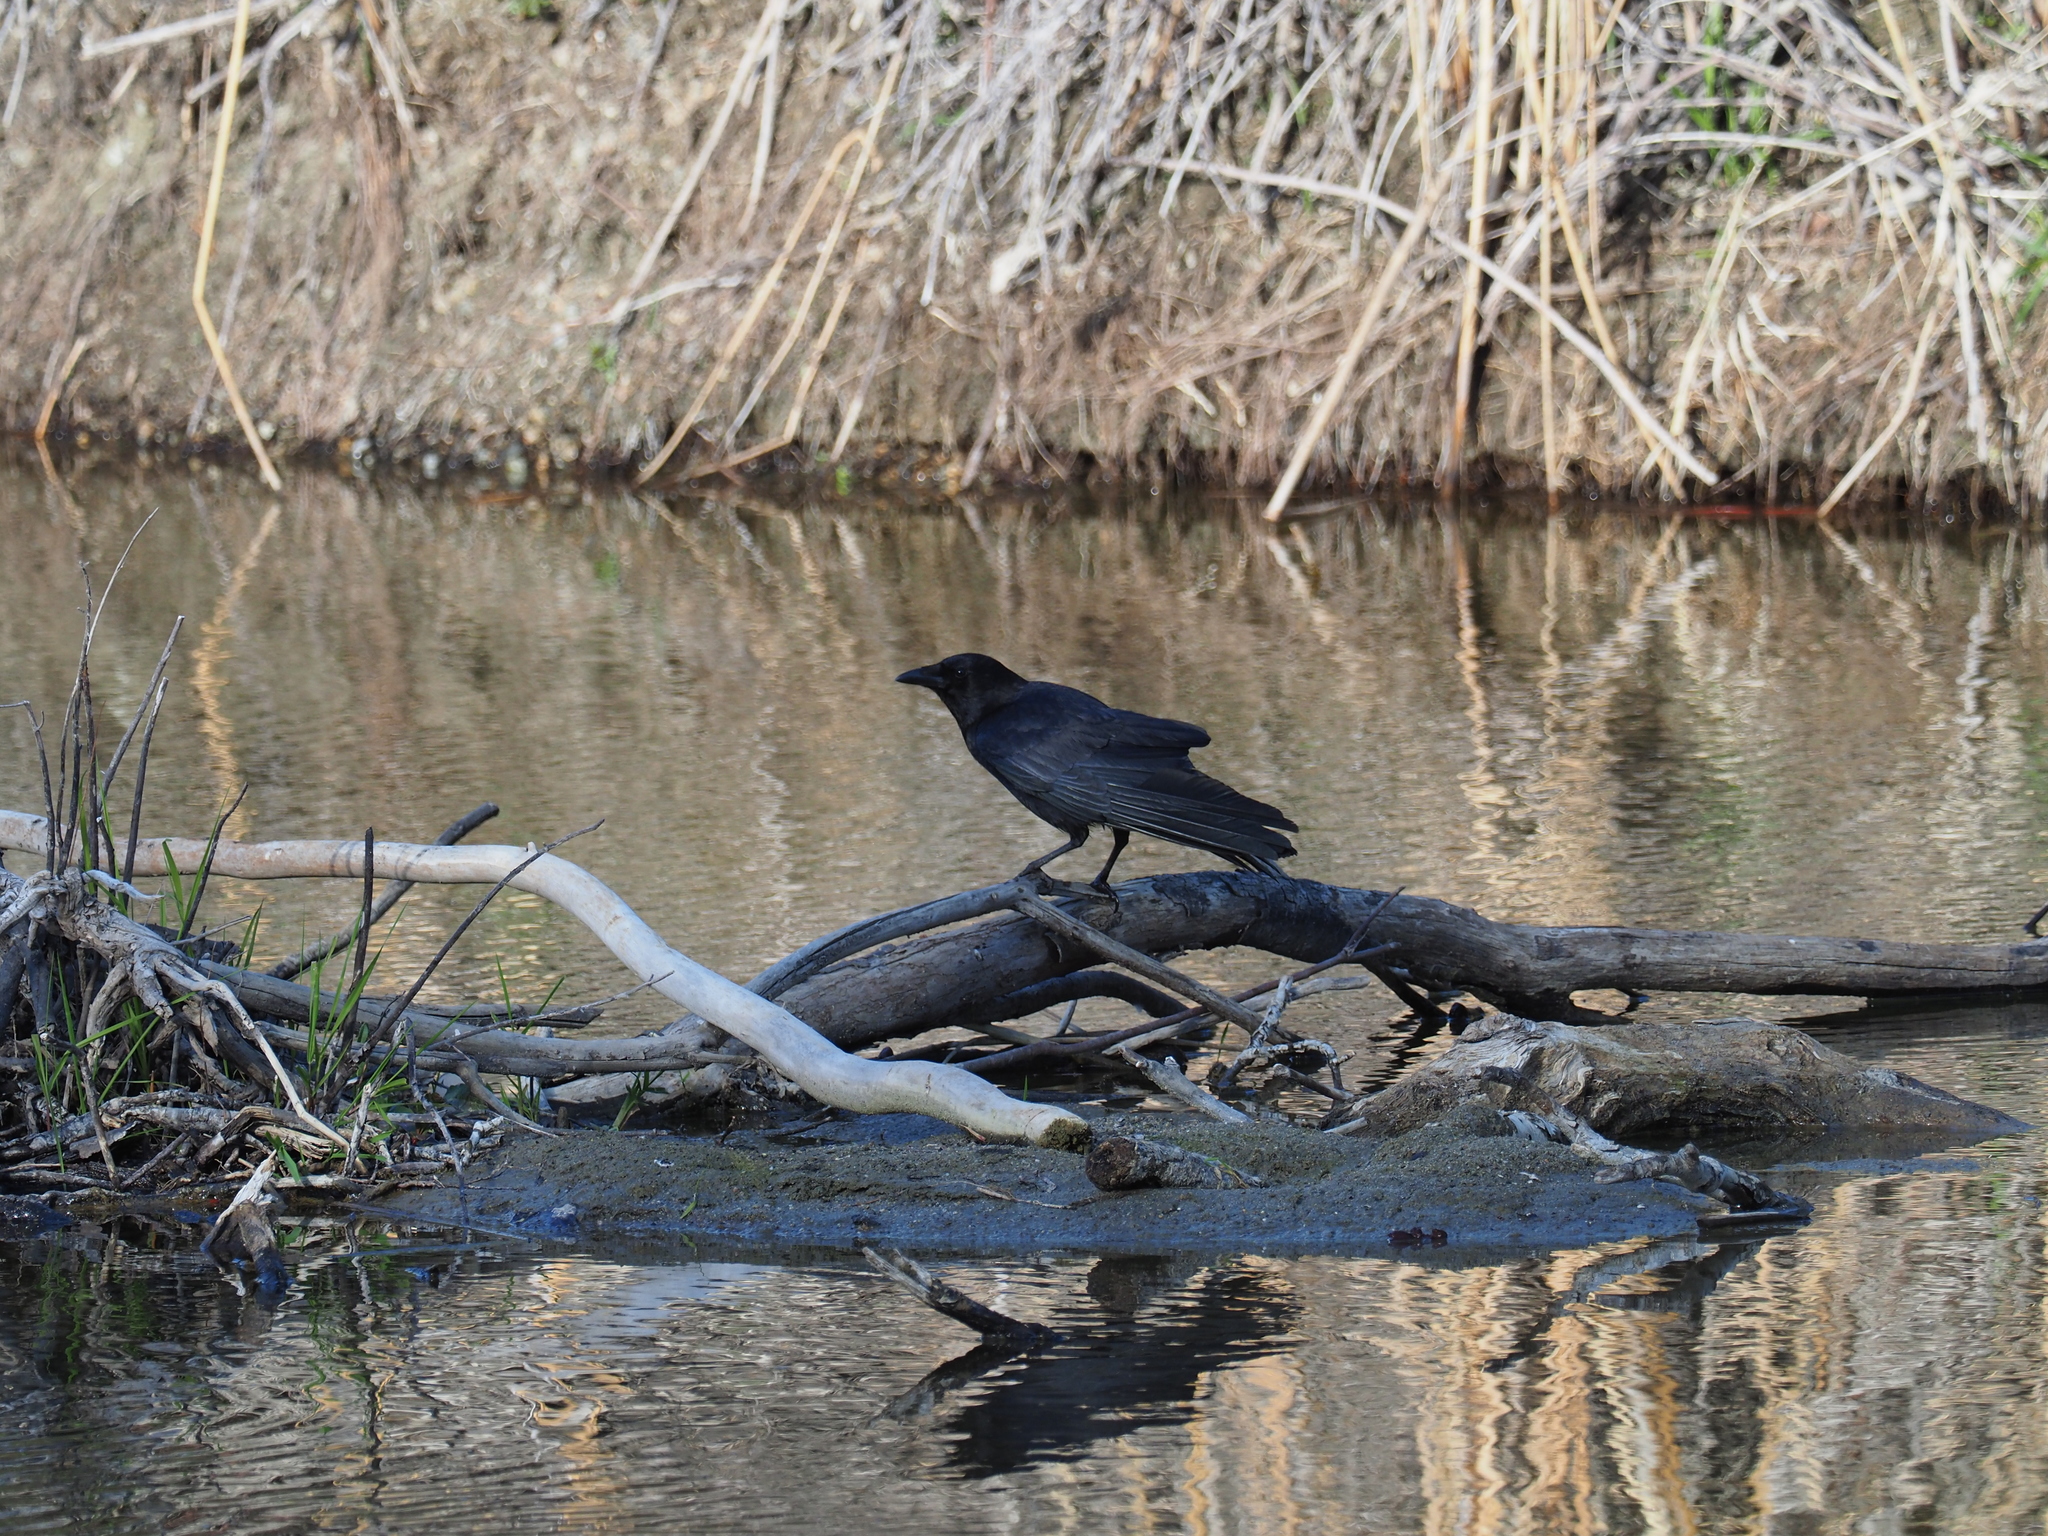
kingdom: Animalia
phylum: Chordata
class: Aves
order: Passeriformes
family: Corvidae
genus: Corvus
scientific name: Corvus brachyrhynchos
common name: American crow
